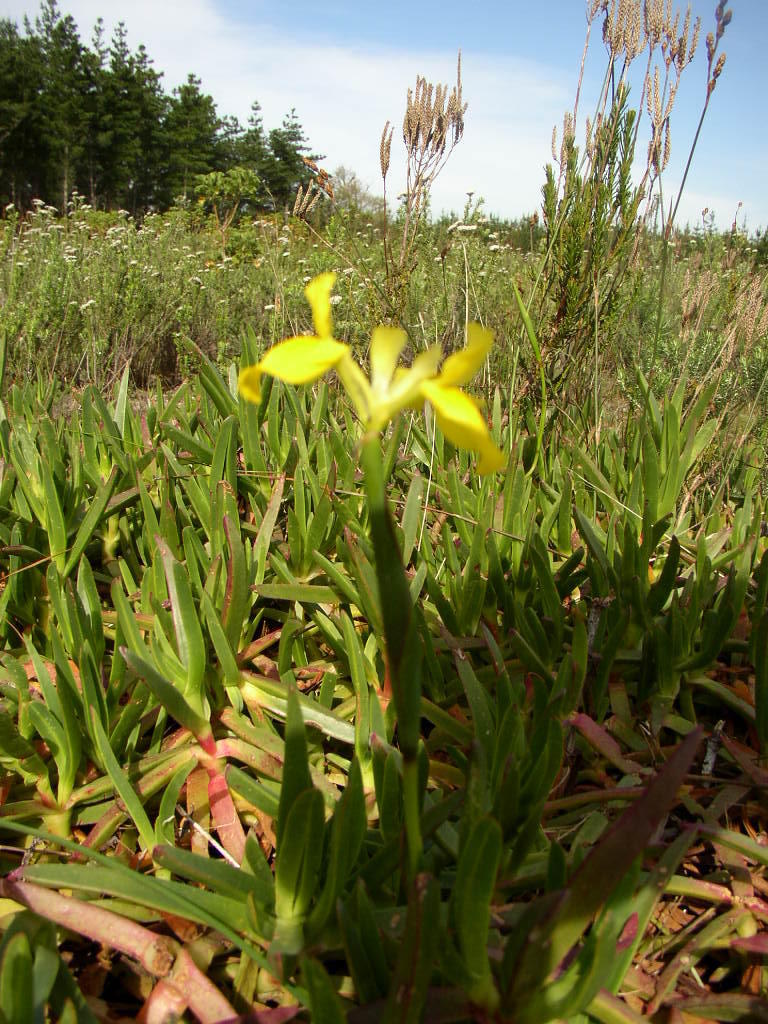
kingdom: Plantae
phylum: Tracheophyta
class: Liliopsida
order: Asparagales
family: Iridaceae
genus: Moraea
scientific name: Moraea neglecta
